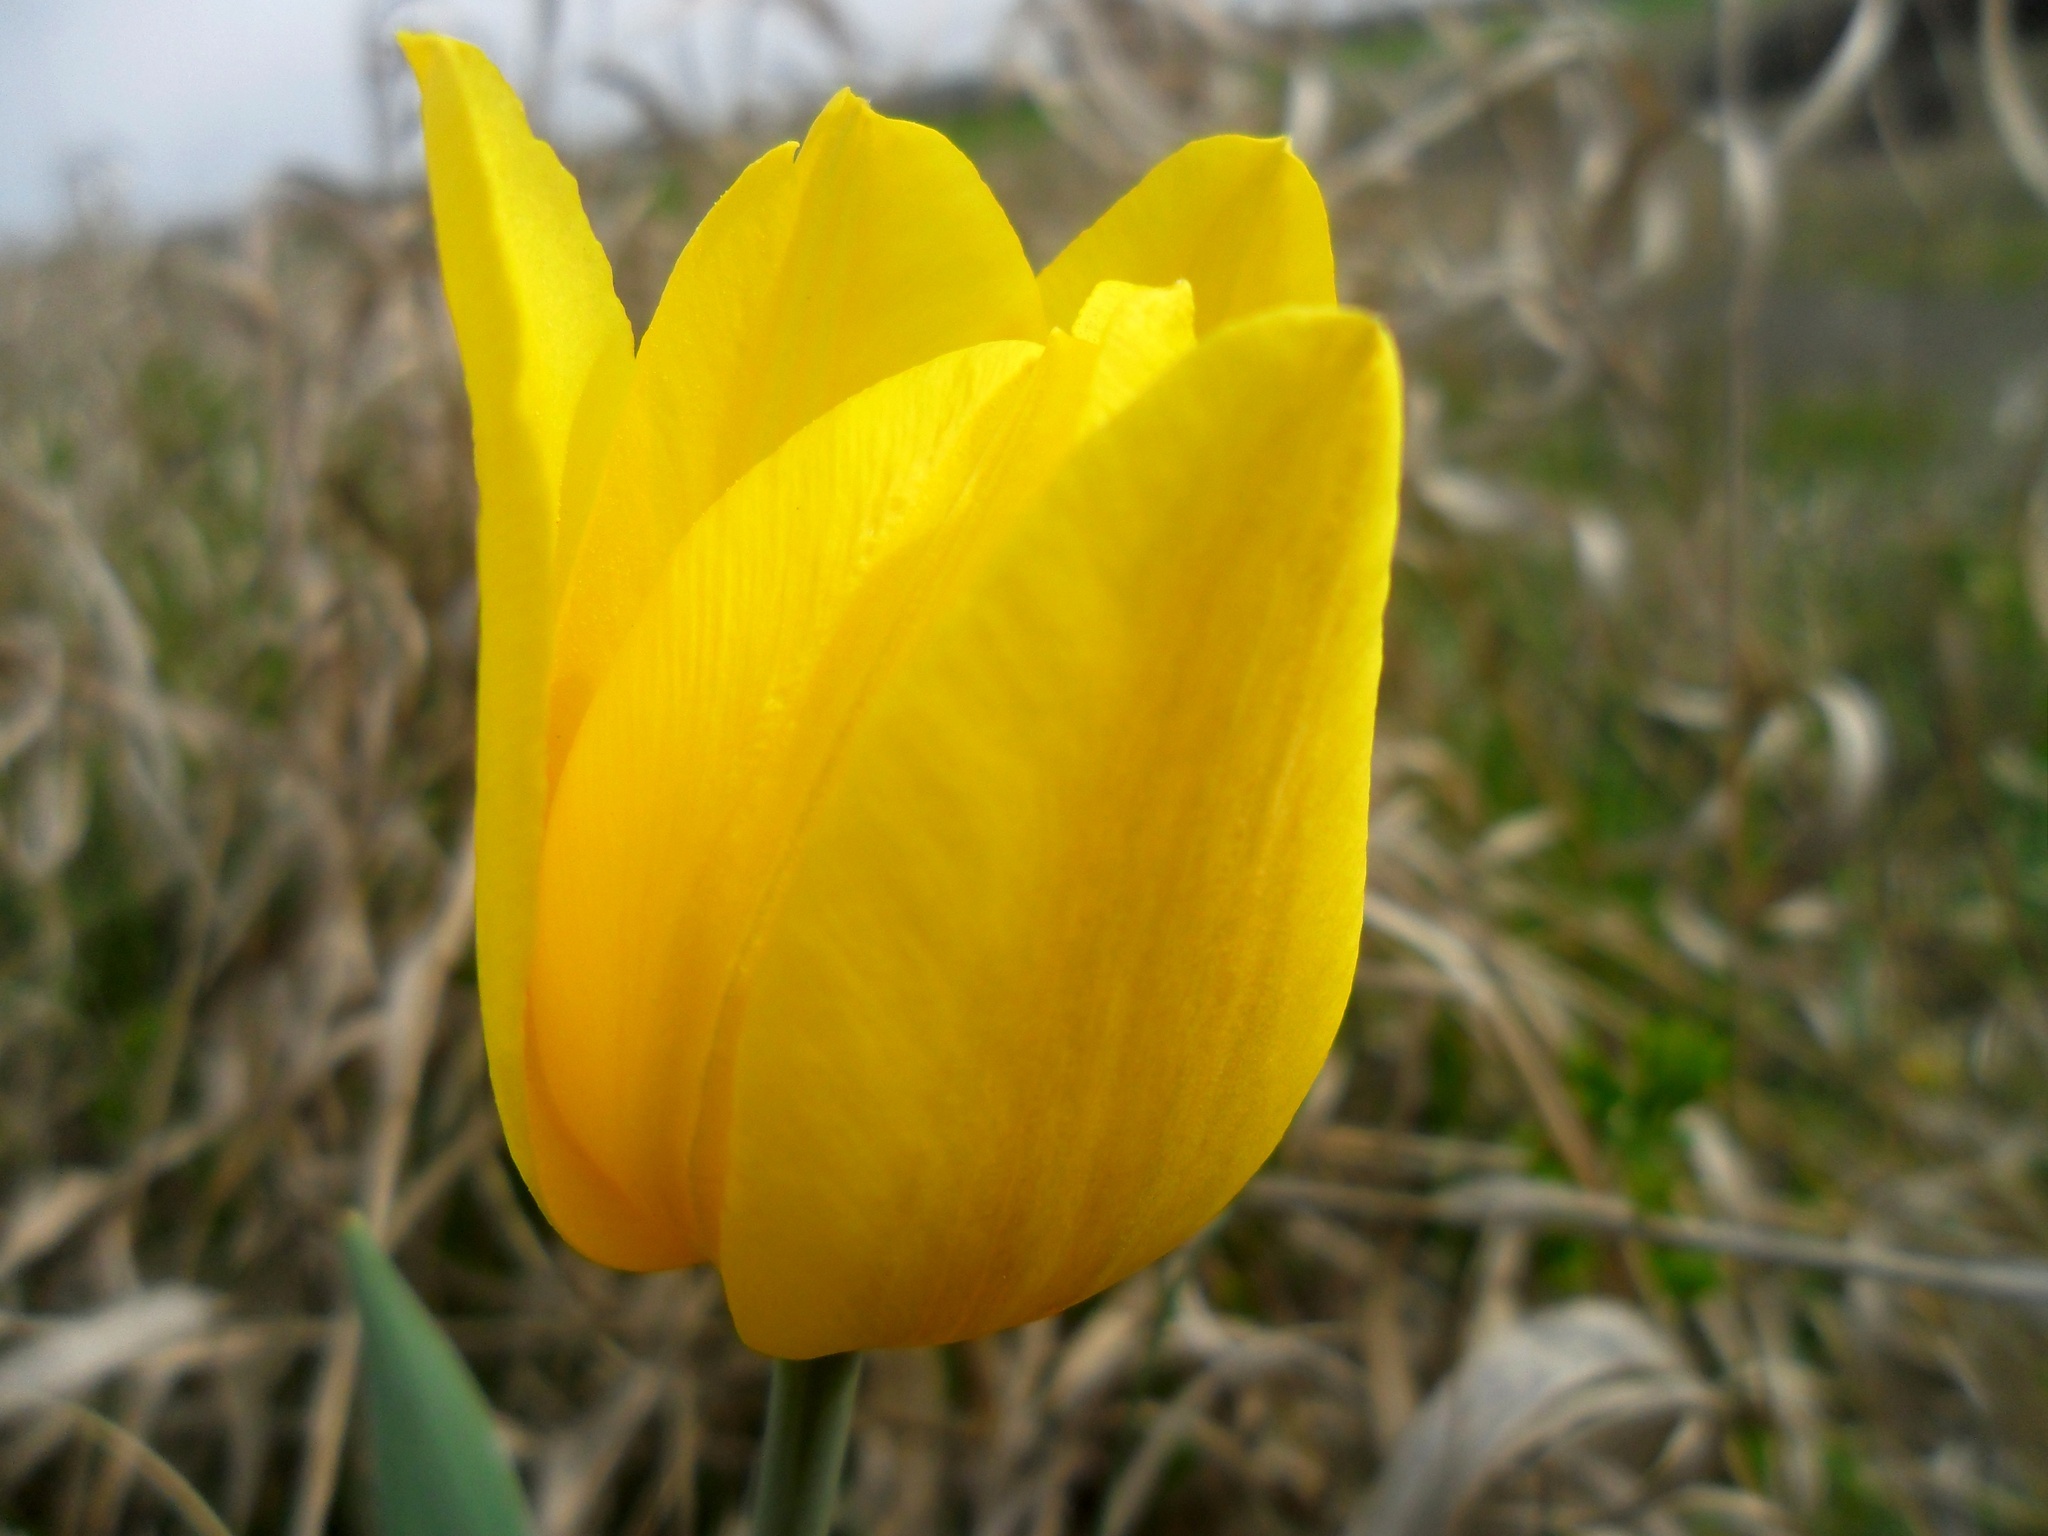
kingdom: Plantae
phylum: Tracheophyta
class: Liliopsida
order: Liliales
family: Liliaceae
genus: Tulipa
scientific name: Tulipa suaveolens
